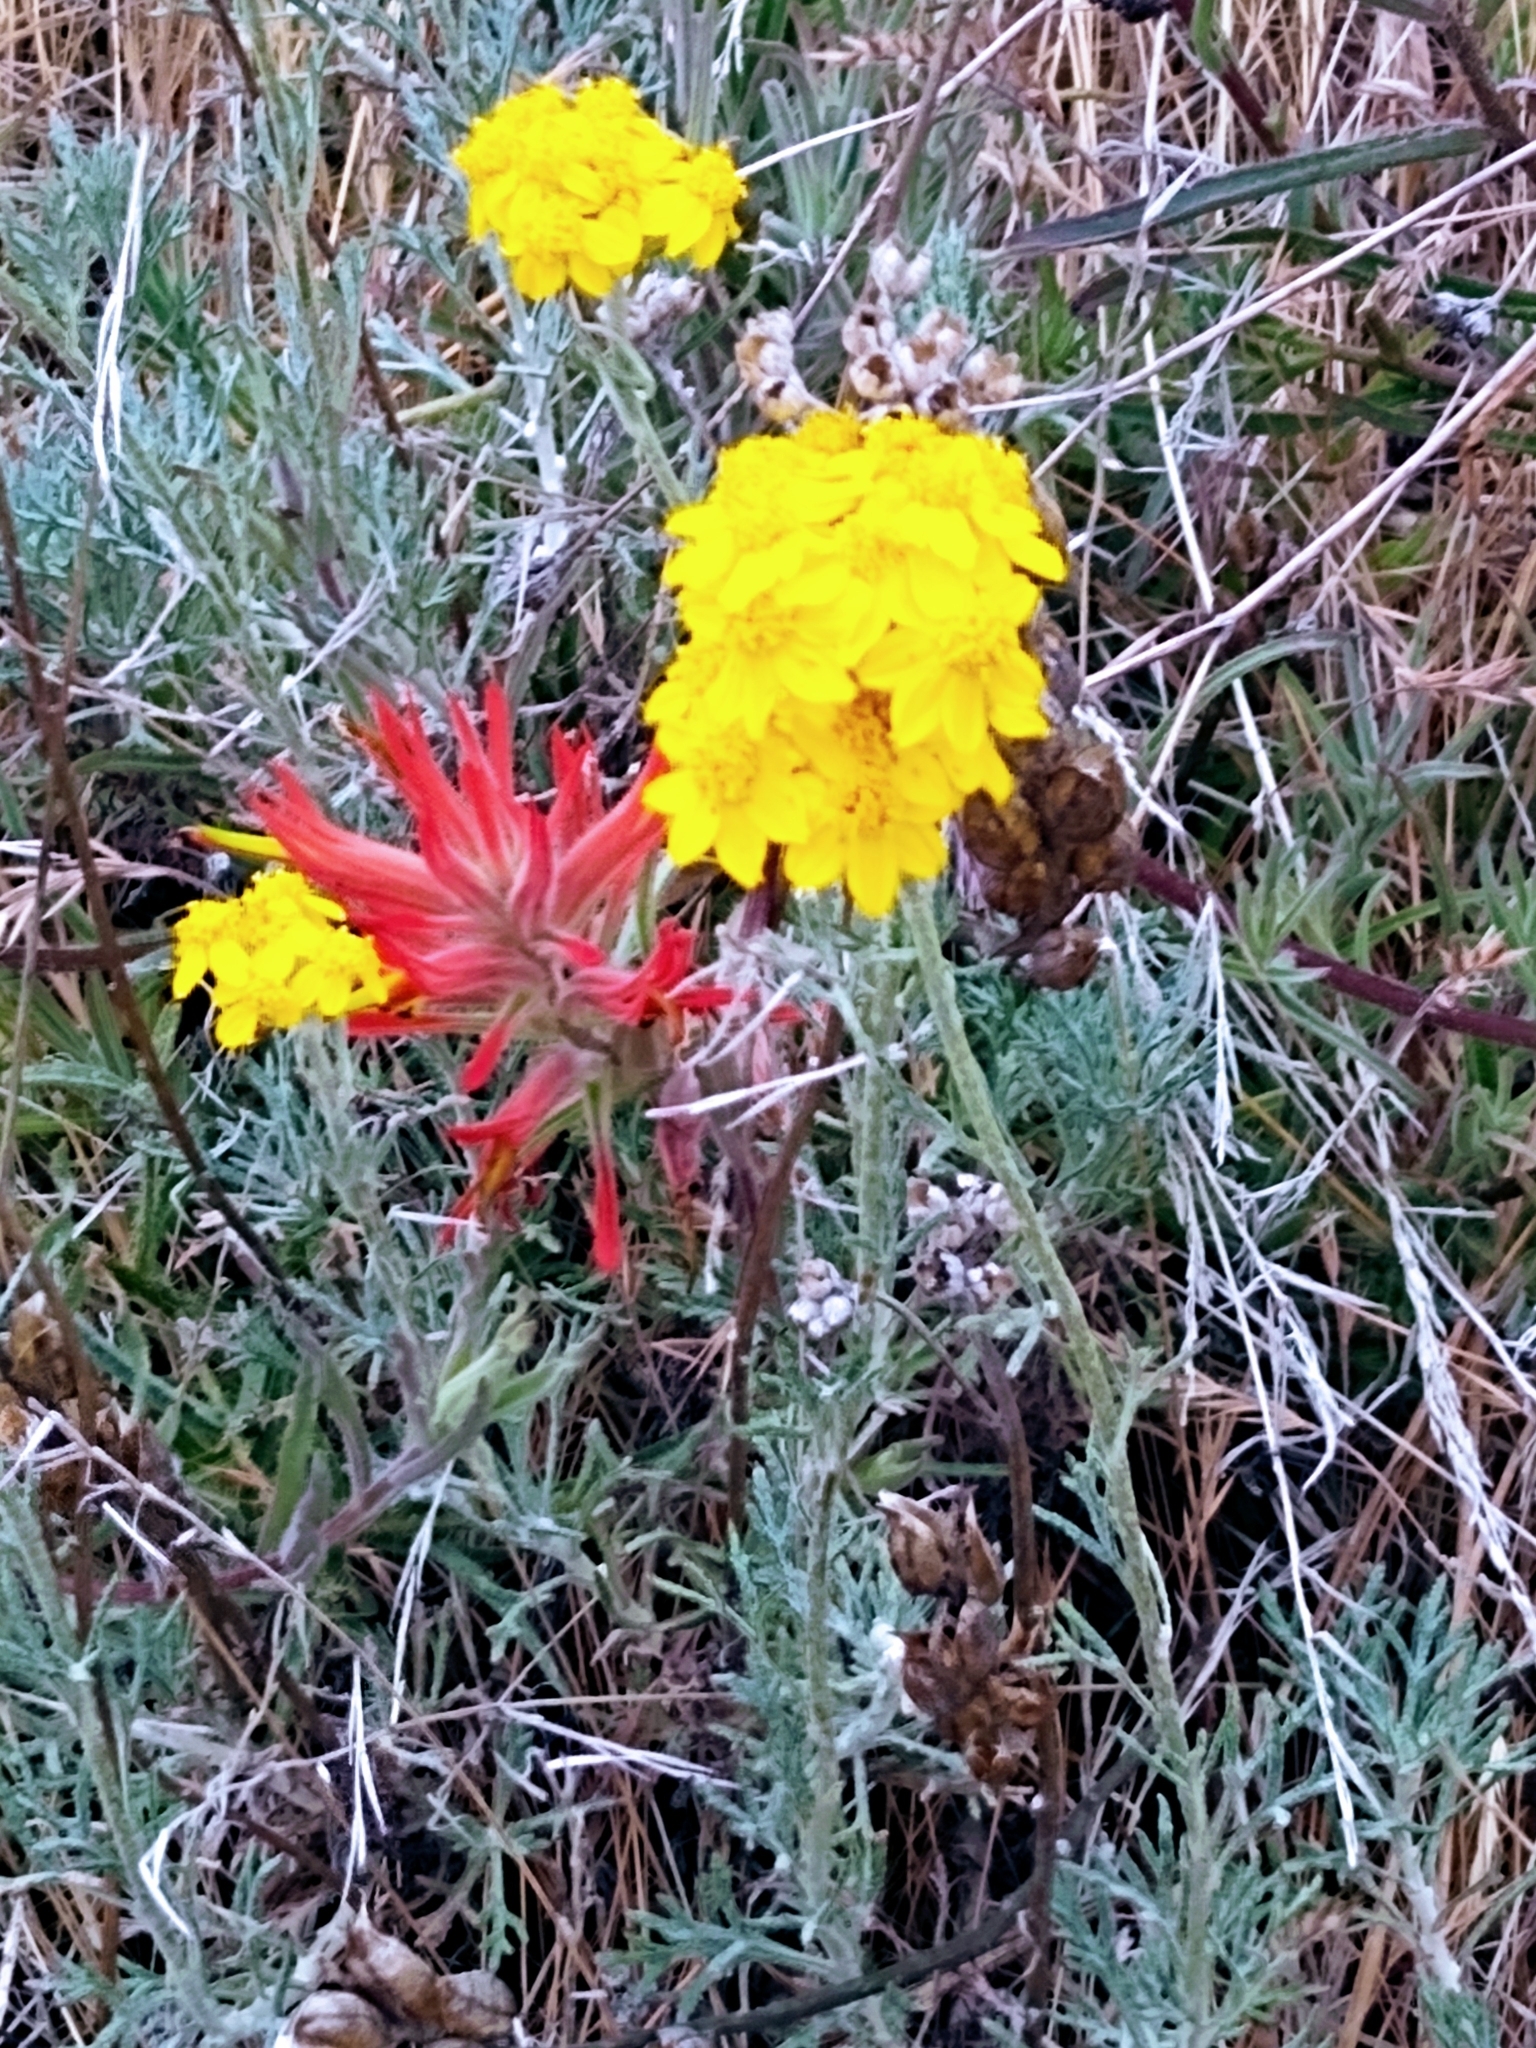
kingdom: Plantae
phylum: Tracheophyta
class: Magnoliopsida
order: Lamiales
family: Orobanchaceae
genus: Castilleja
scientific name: Castilleja subinclusa
